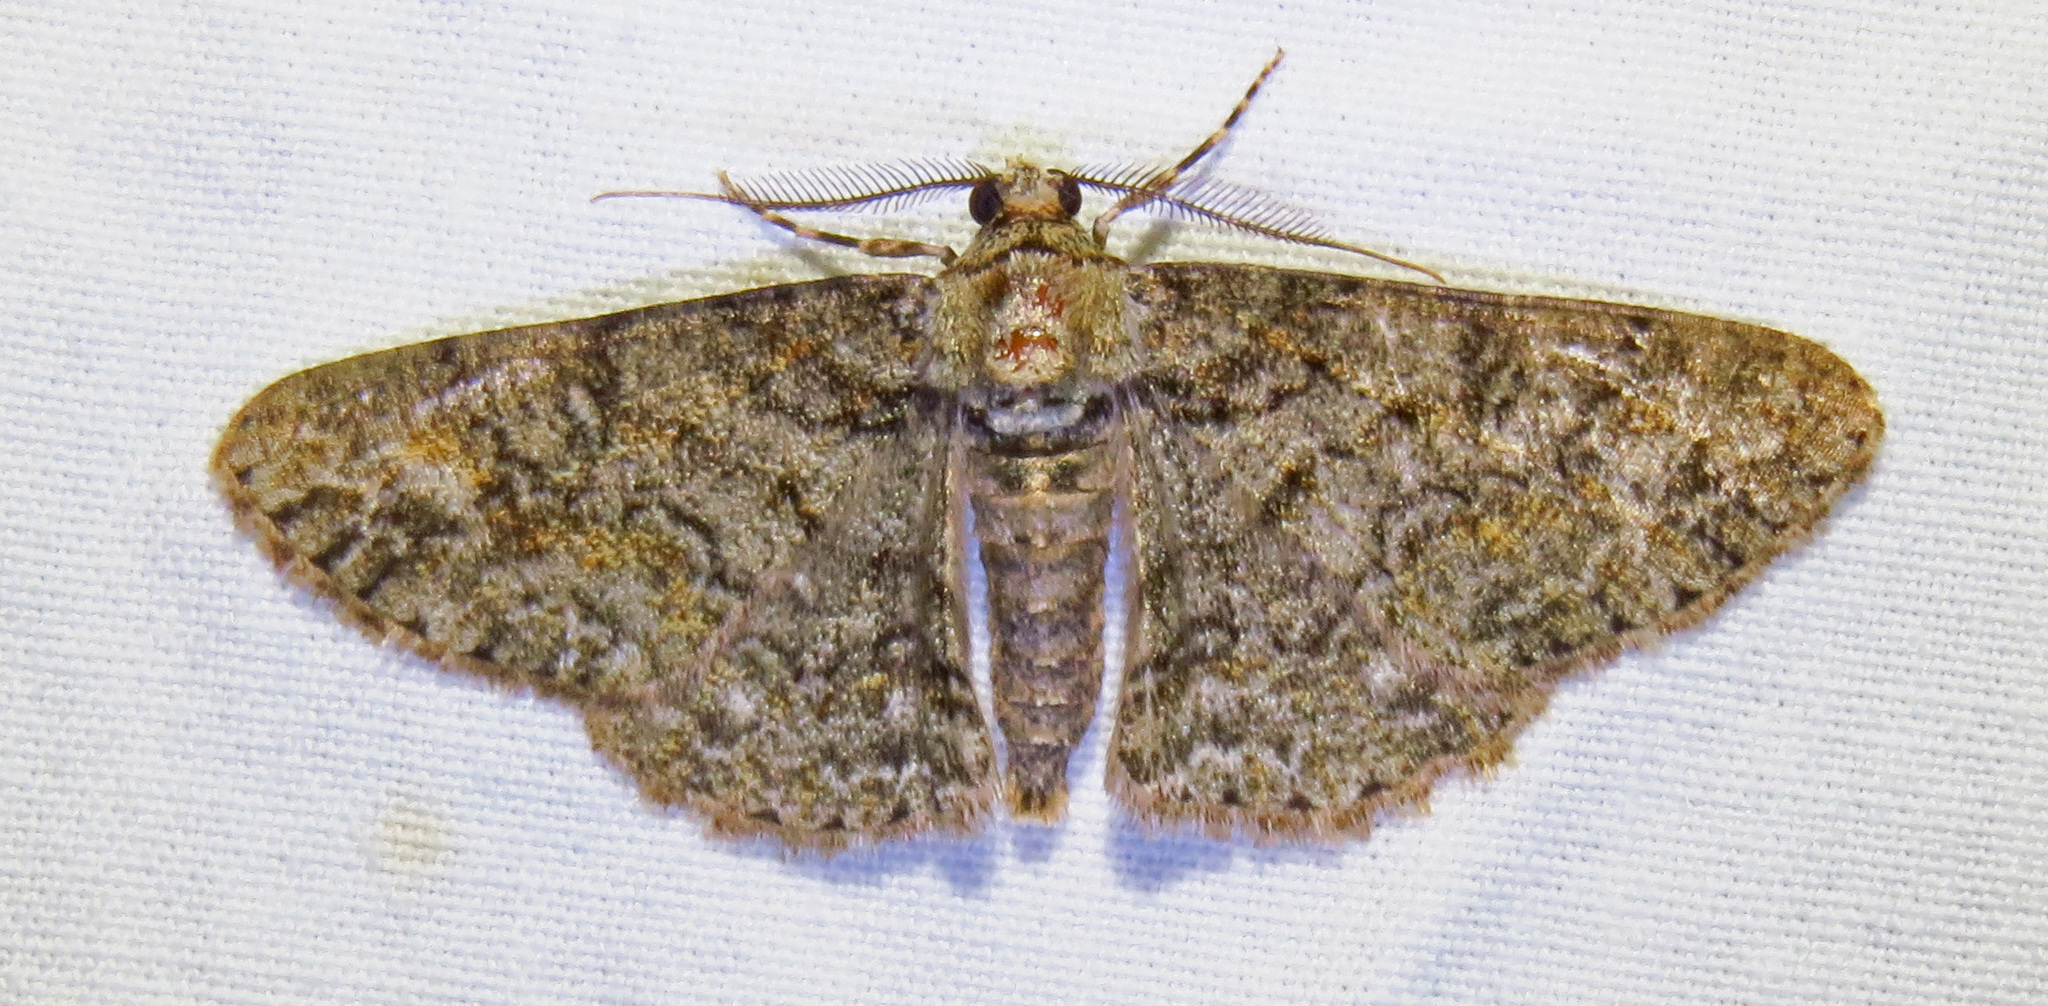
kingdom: Animalia
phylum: Arthropoda
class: Insecta
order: Lepidoptera
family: Geometridae
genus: Cleora
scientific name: Cleora sublunaria
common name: Double-lined gray
